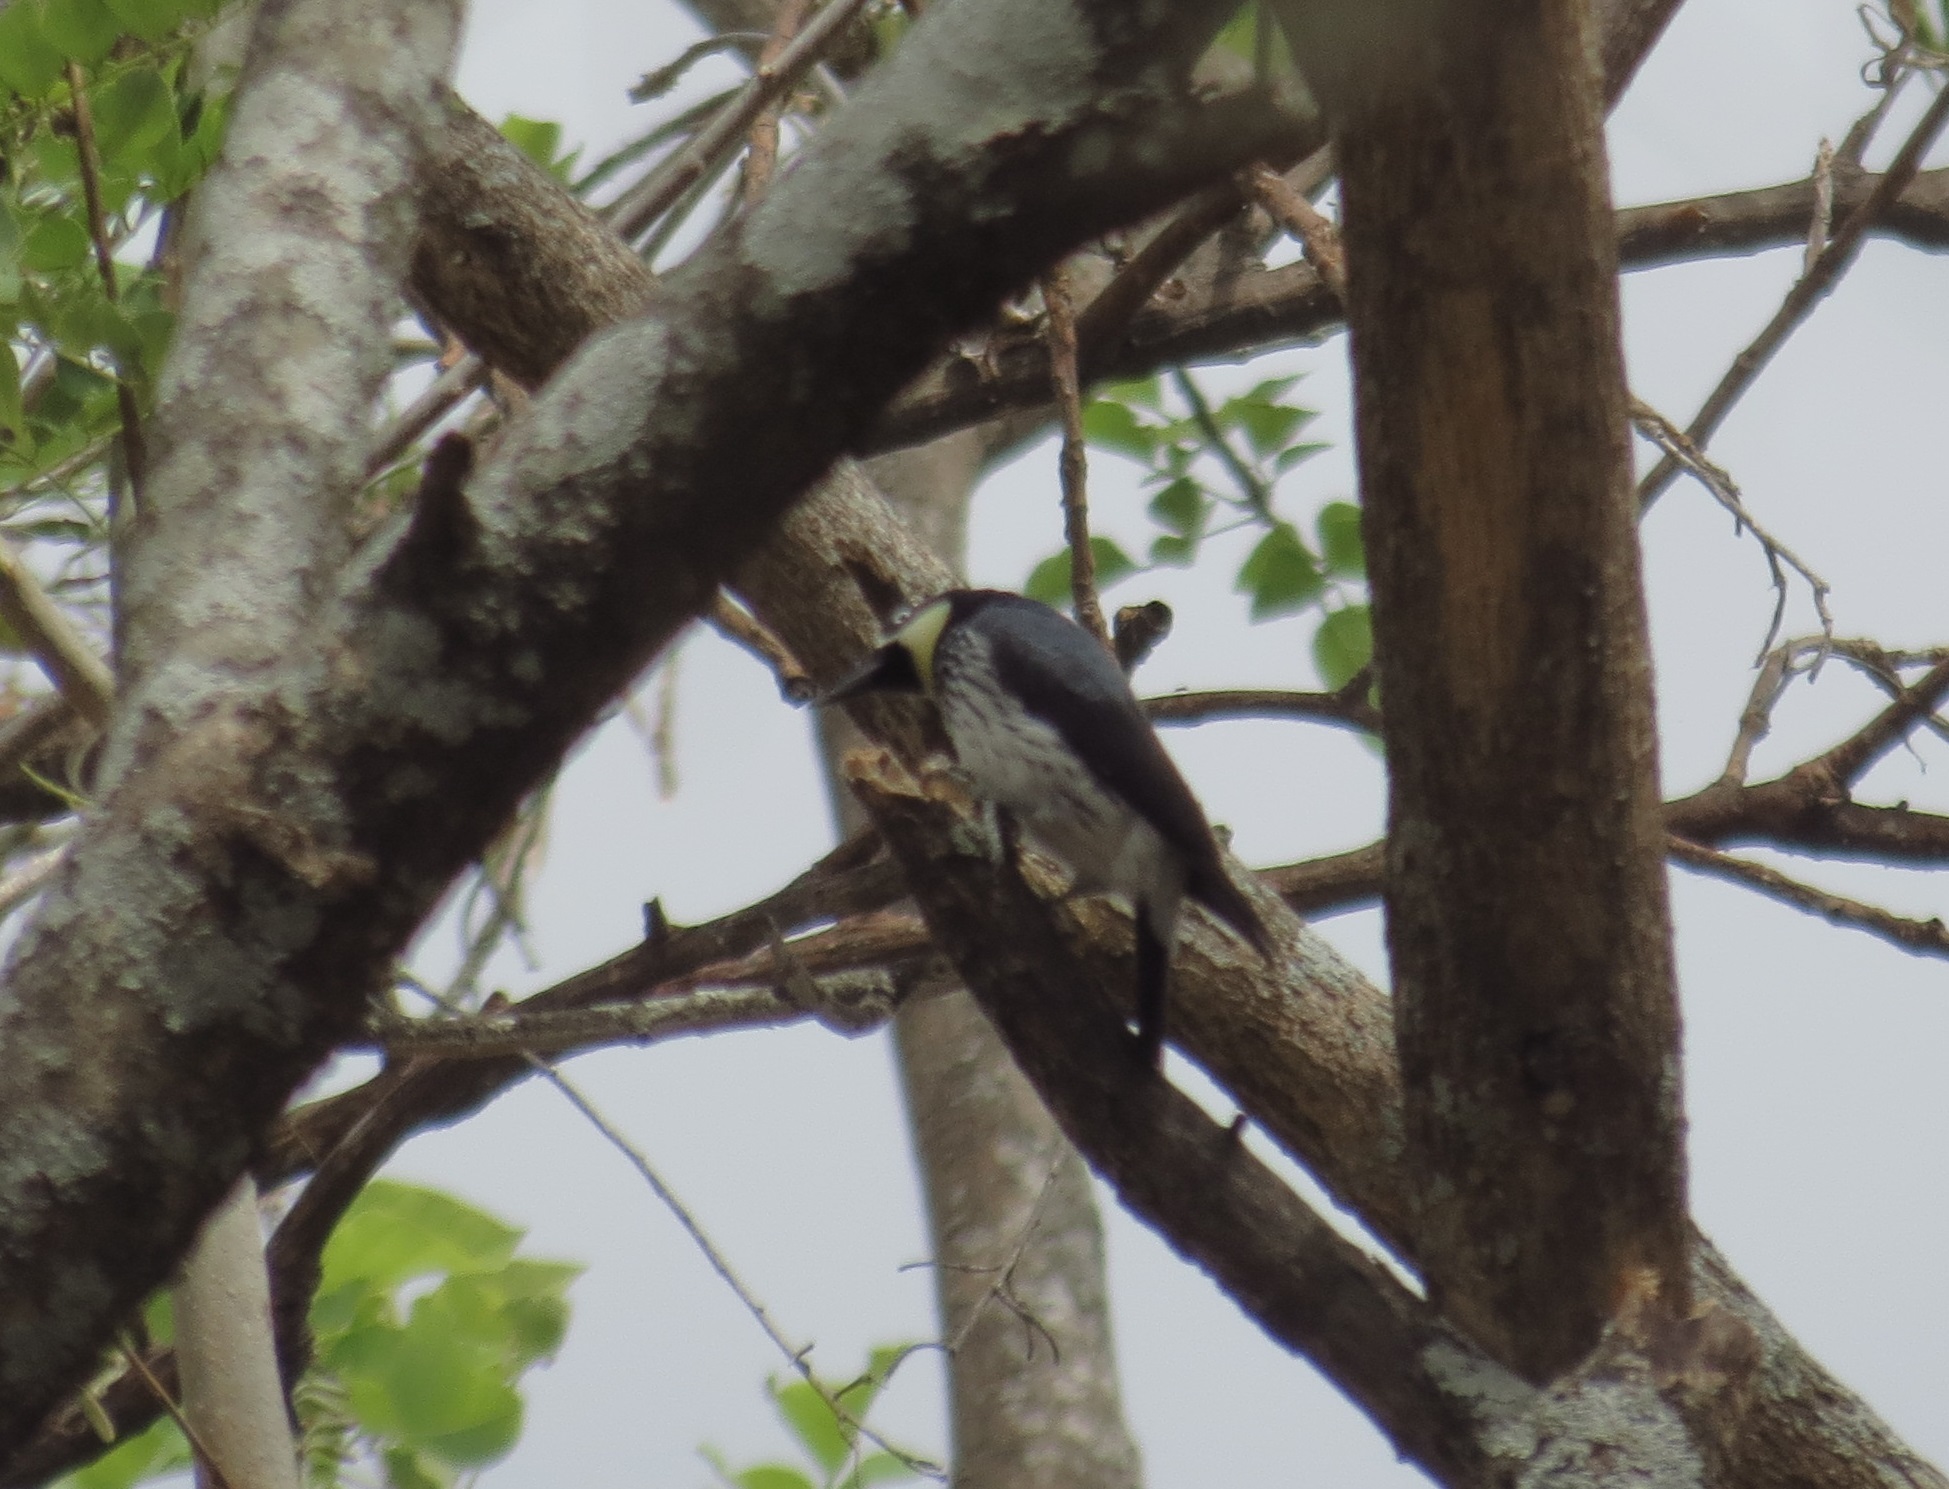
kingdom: Animalia
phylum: Chordata
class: Aves
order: Piciformes
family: Picidae
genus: Melanerpes
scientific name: Melanerpes formicivorus
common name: Acorn woodpecker
